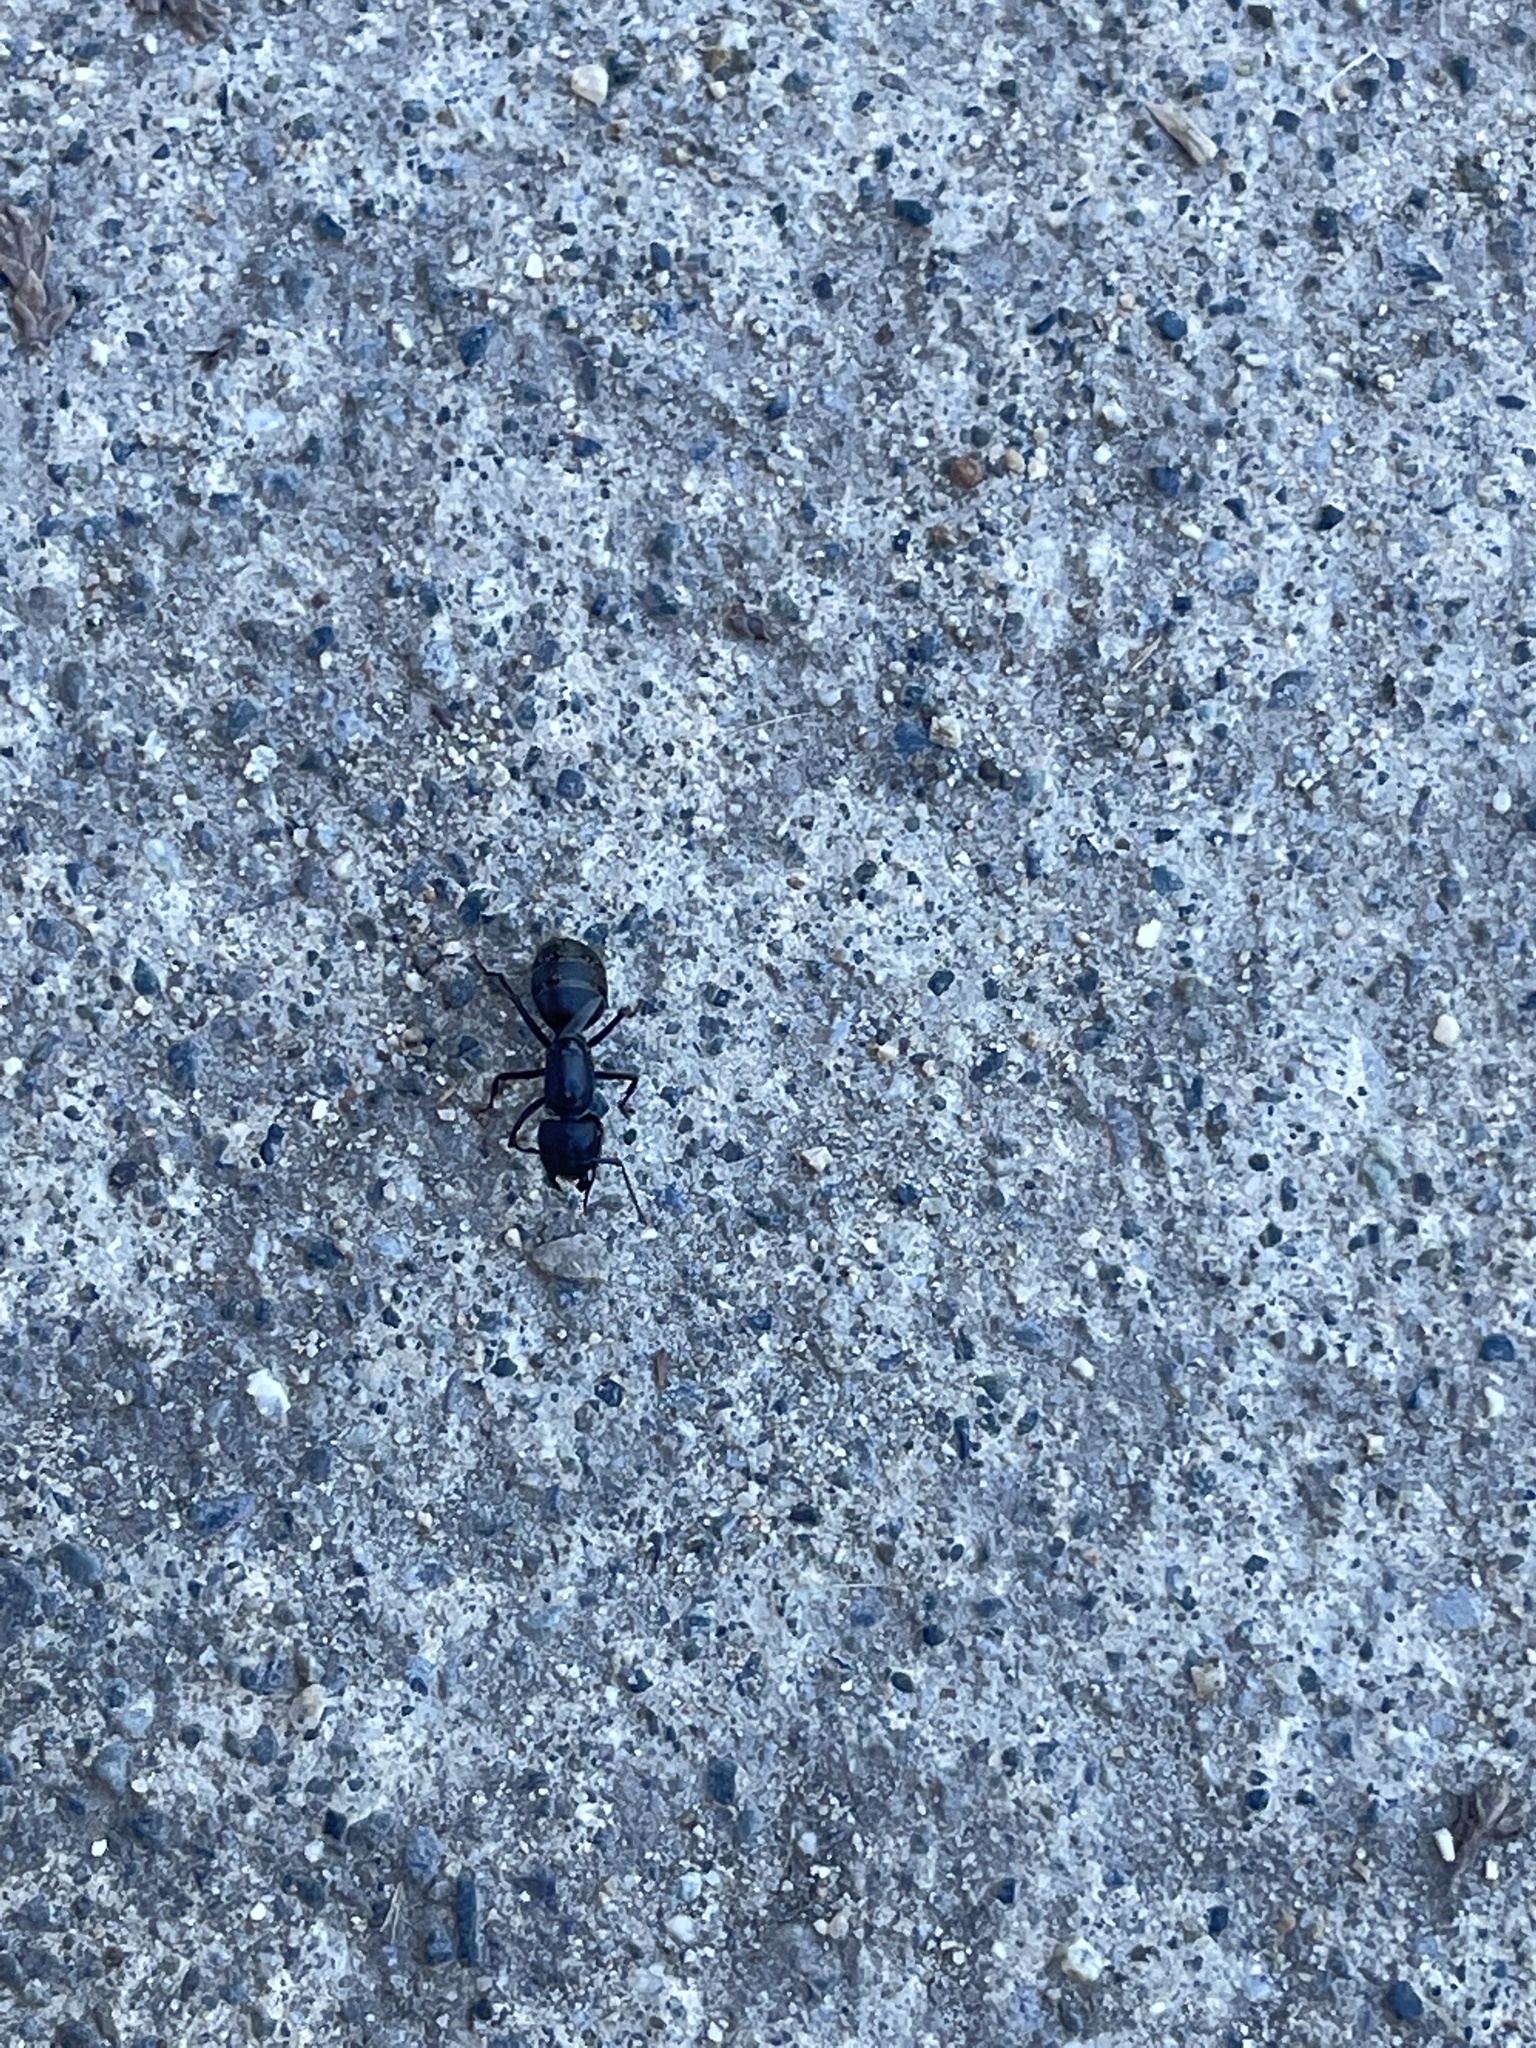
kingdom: Animalia
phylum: Arthropoda
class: Insecta
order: Hymenoptera
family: Formicidae
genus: Camponotus
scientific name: Camponotus modoc
